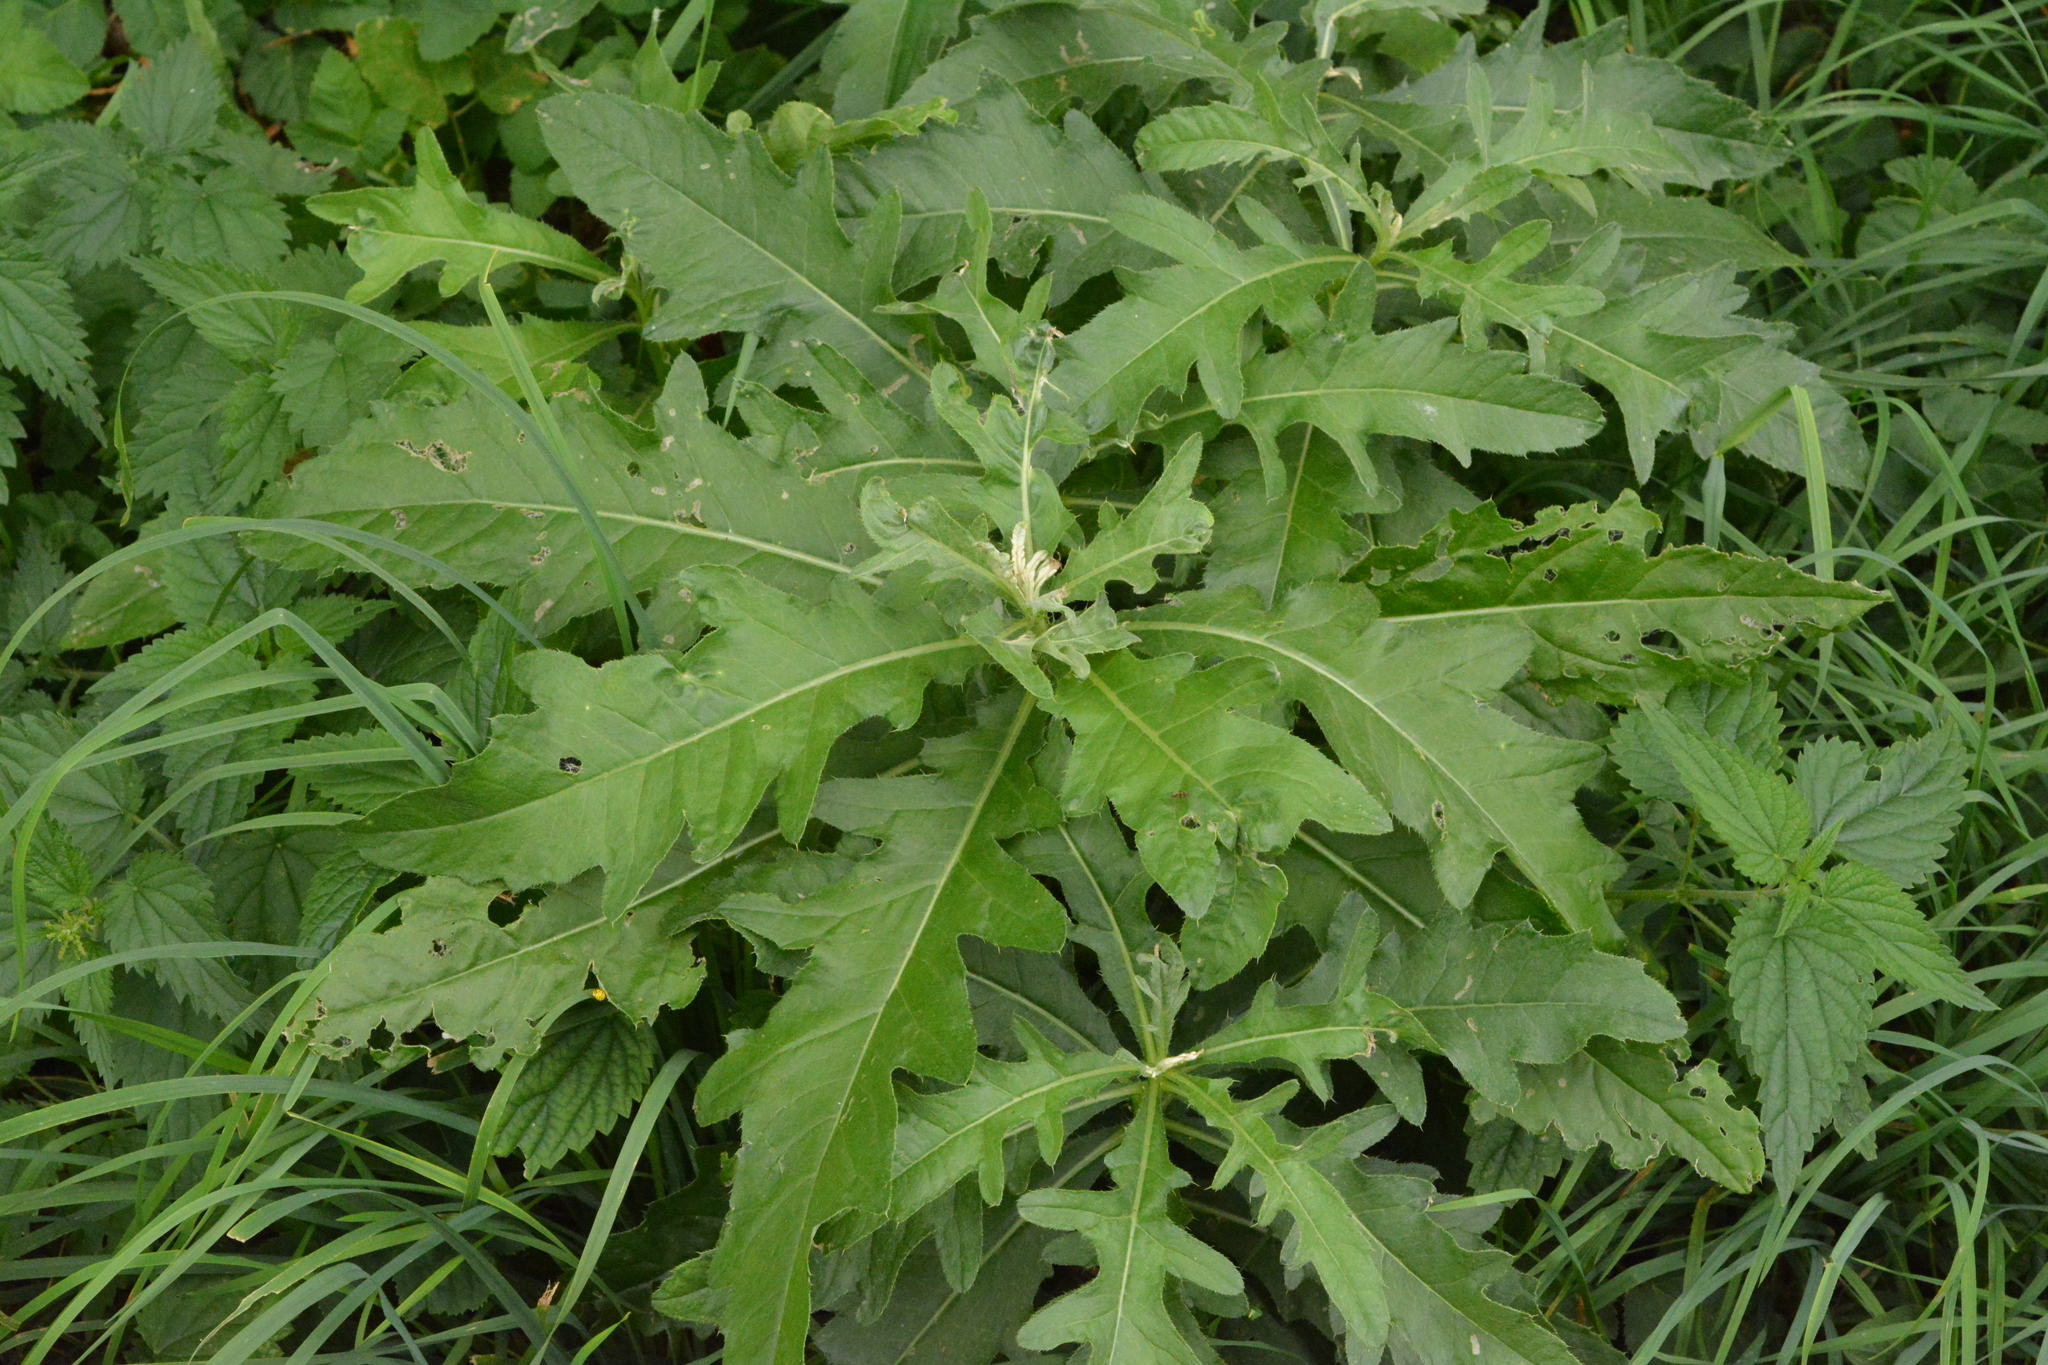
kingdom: Plantae
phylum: Tracheophyta
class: Magnoliopsida
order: Asterales
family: Asteraceae
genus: Cirsium
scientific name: Cirsium arvense
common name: Creeping thistle
